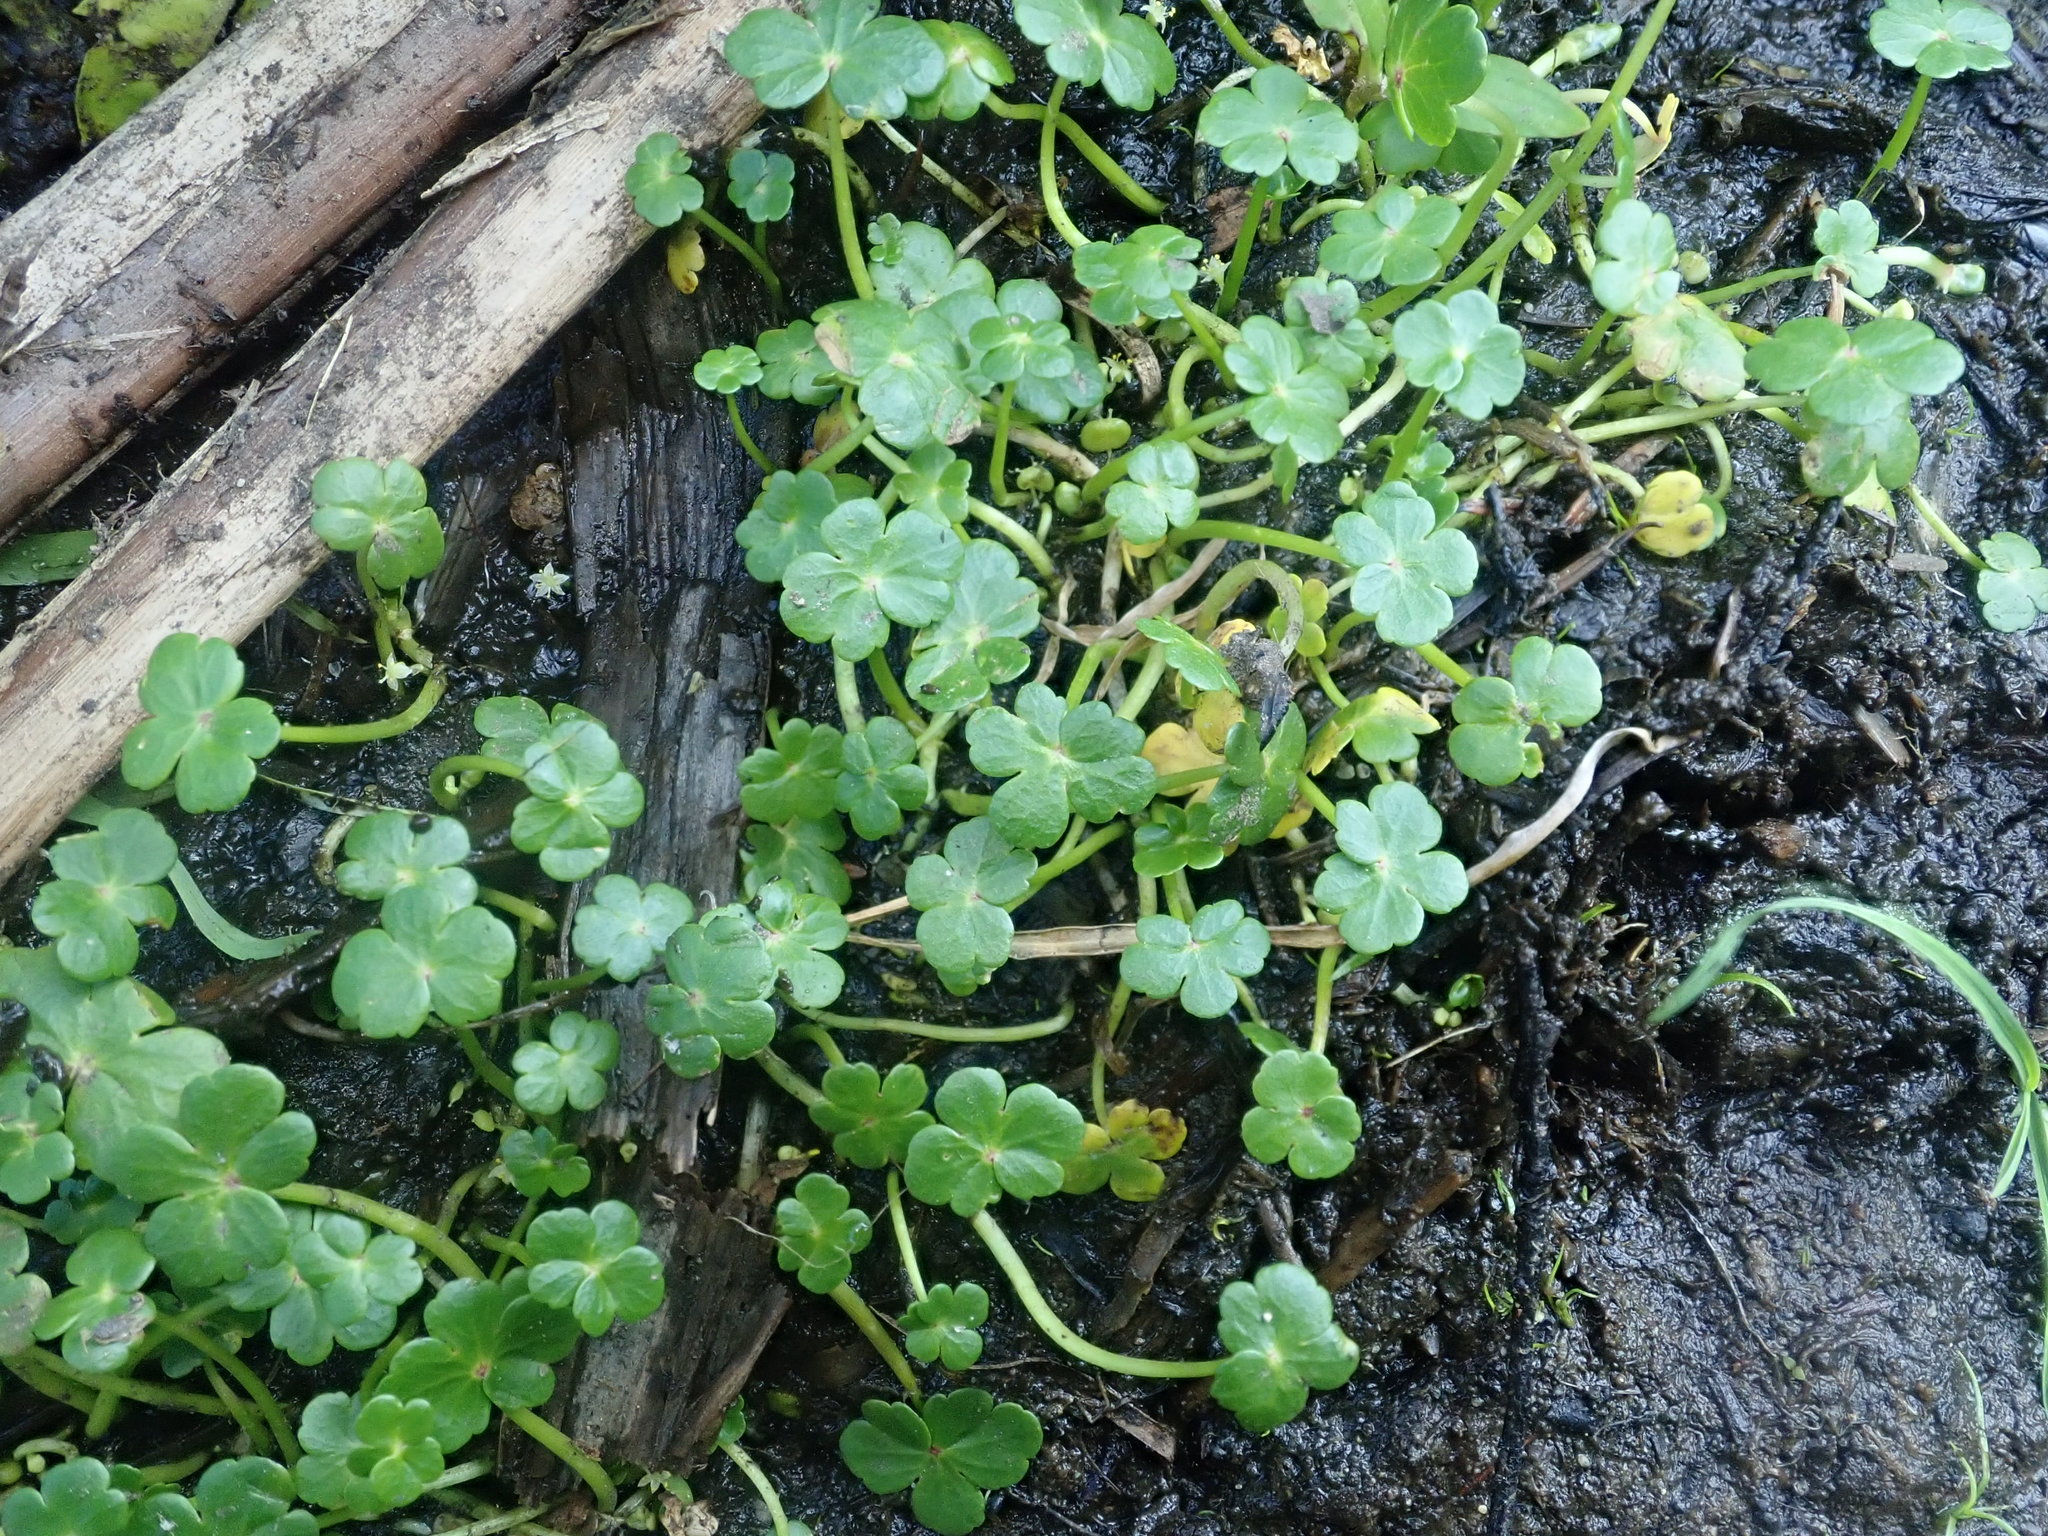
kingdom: Plantae
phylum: Tracheophyta
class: Magnoliopsida
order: Apiales
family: Araliaceae
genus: Hydrocotyle
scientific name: Hydrocotyle ranunculoides
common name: Floating pennywort
